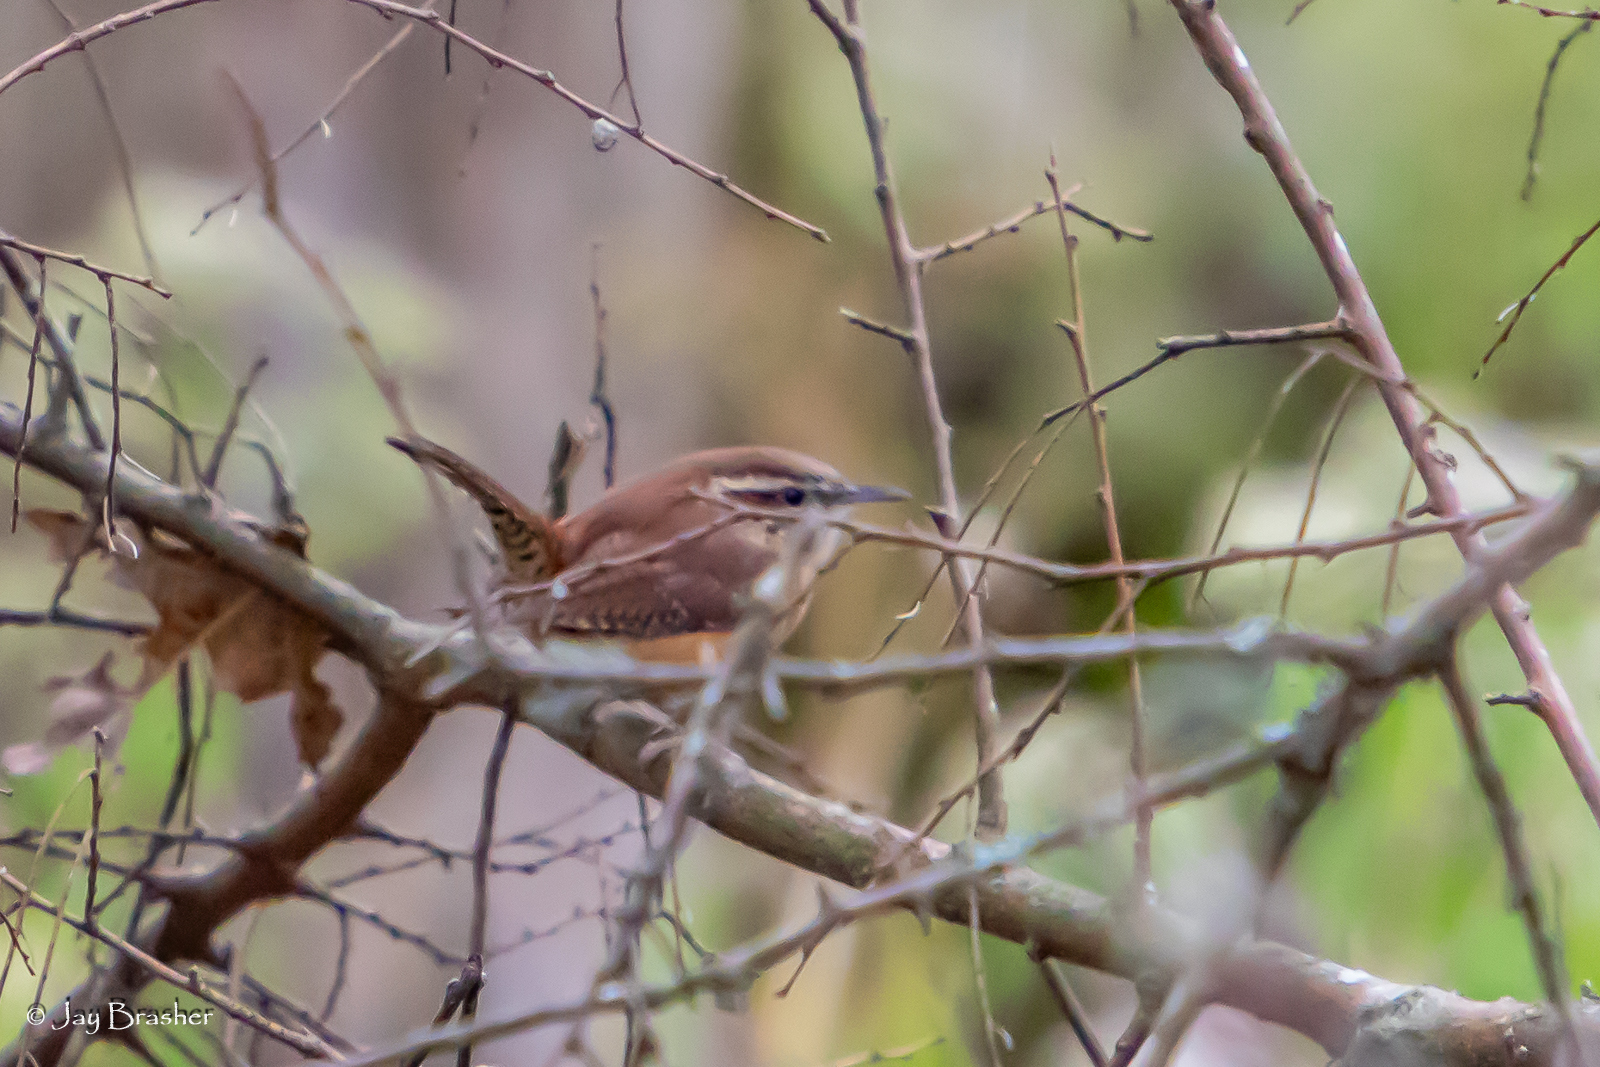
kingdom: Animalia
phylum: Chordata
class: Aves
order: Passeriformes
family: Troglodytidae
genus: Thryothorus
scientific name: Thryothorus ludovicianus
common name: Carolina wren
